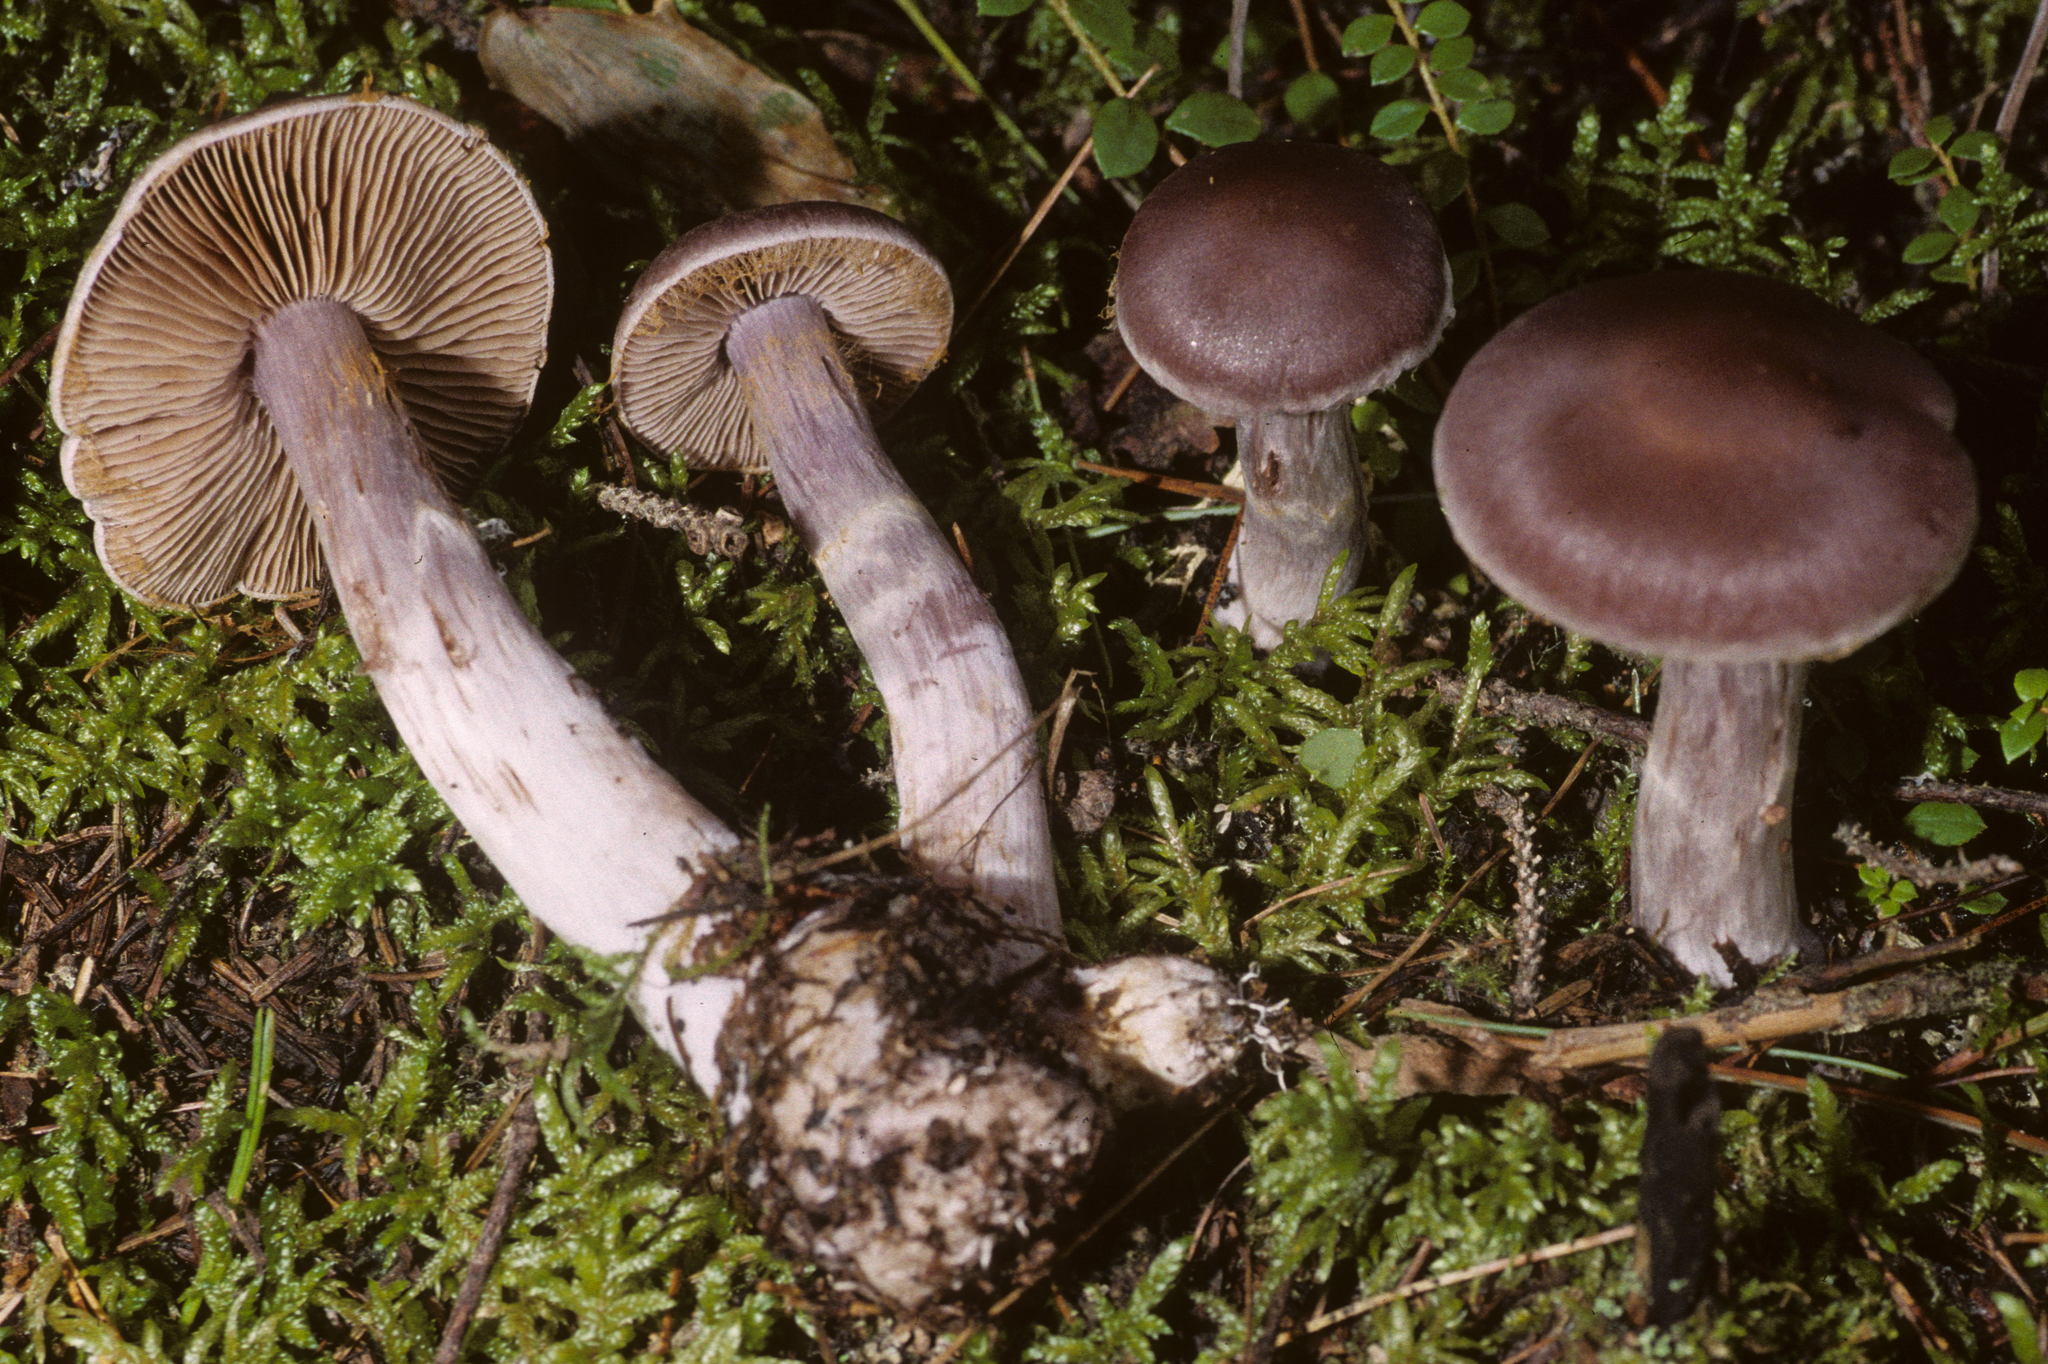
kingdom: Fungi
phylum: Basidiomycota
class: Agaricomycetes
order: Agaricales
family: Cortinariaceae
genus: Cortinarius
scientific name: Cortinarius evernius
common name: Silky webcap
